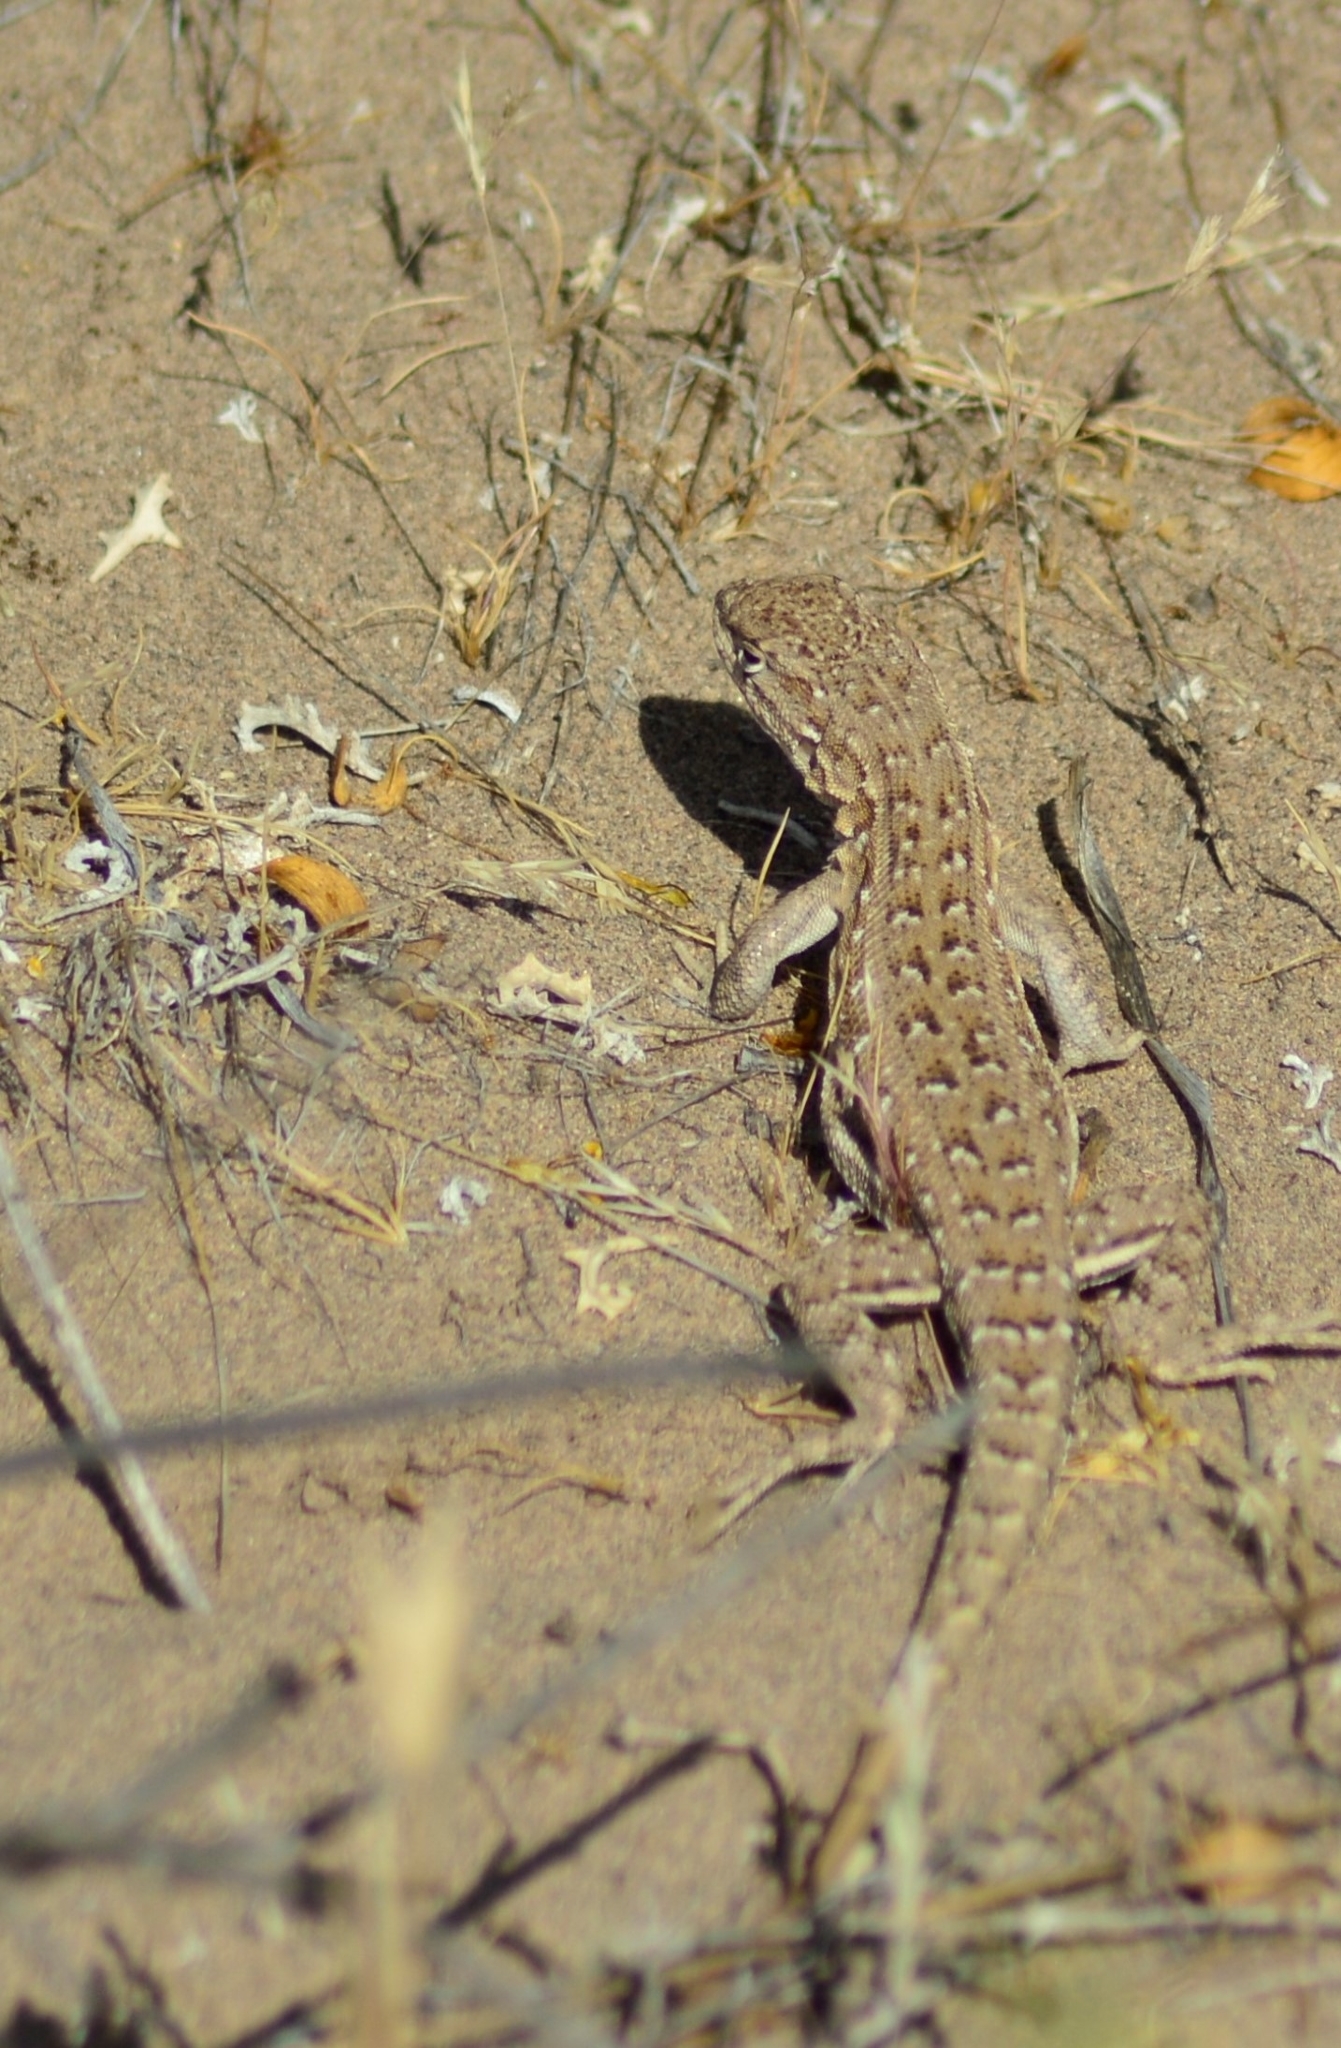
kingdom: Animalia
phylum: Chordata
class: Squamata
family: Liolaemidae
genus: Liolaemus
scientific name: Liolaemus darwinii
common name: Darwin's tree iguana
